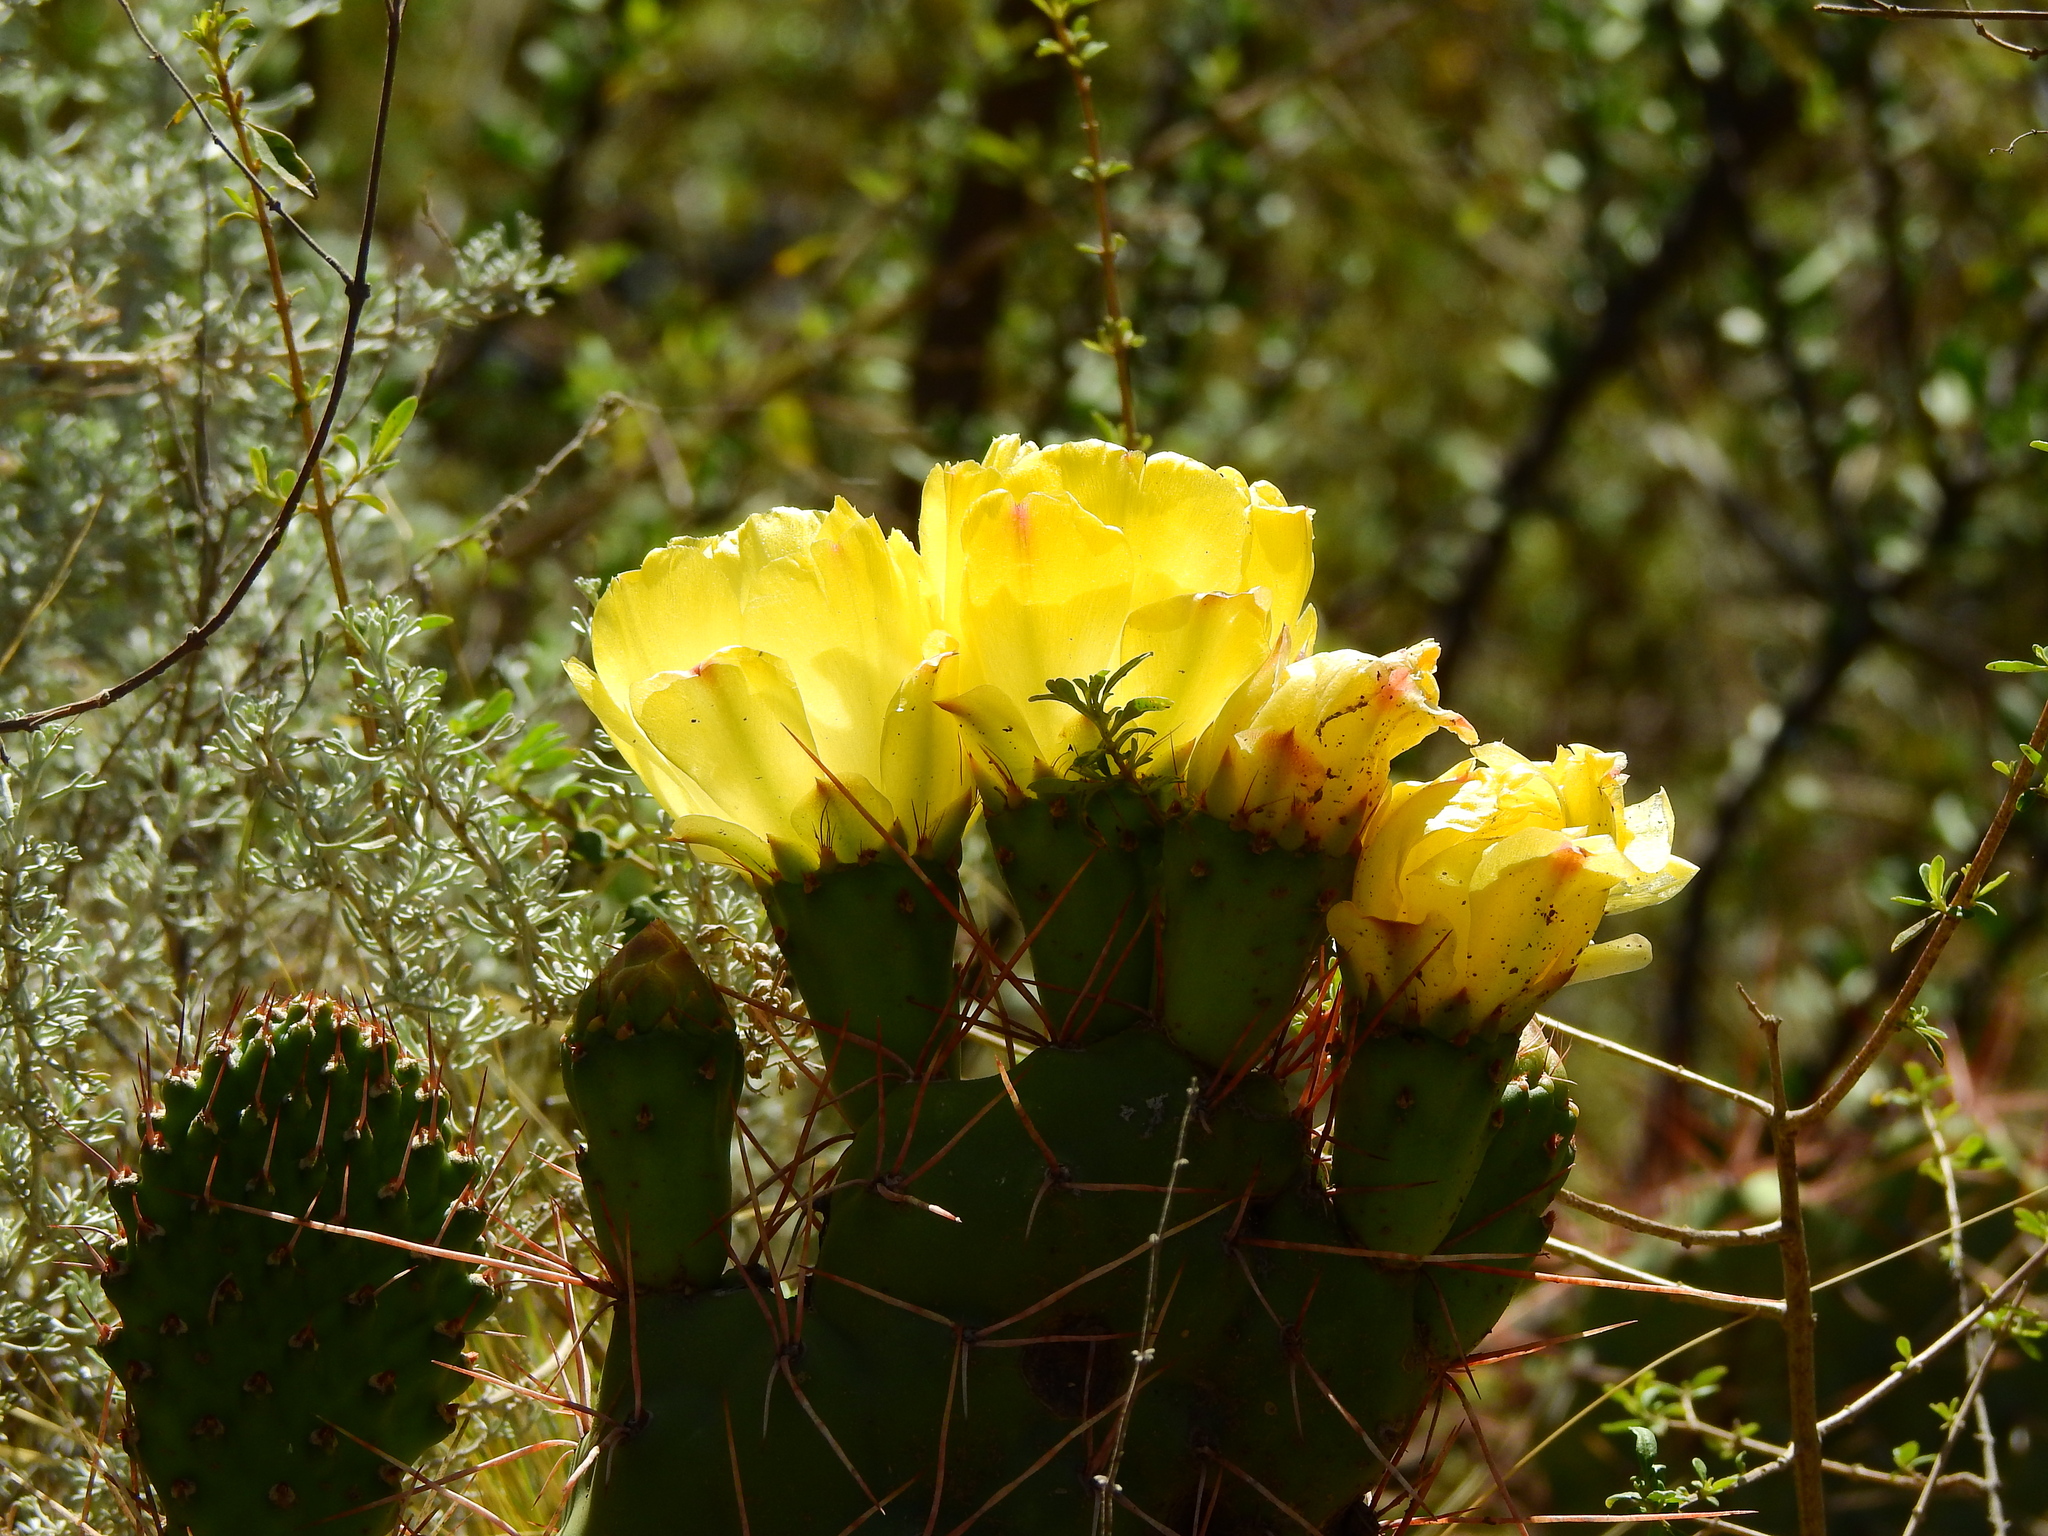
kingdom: Plantae
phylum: Tracheophyta
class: Magnoliopsida
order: Caryophyllales
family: Cactaceae
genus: Opuntia
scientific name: Opuntia sulphurea
